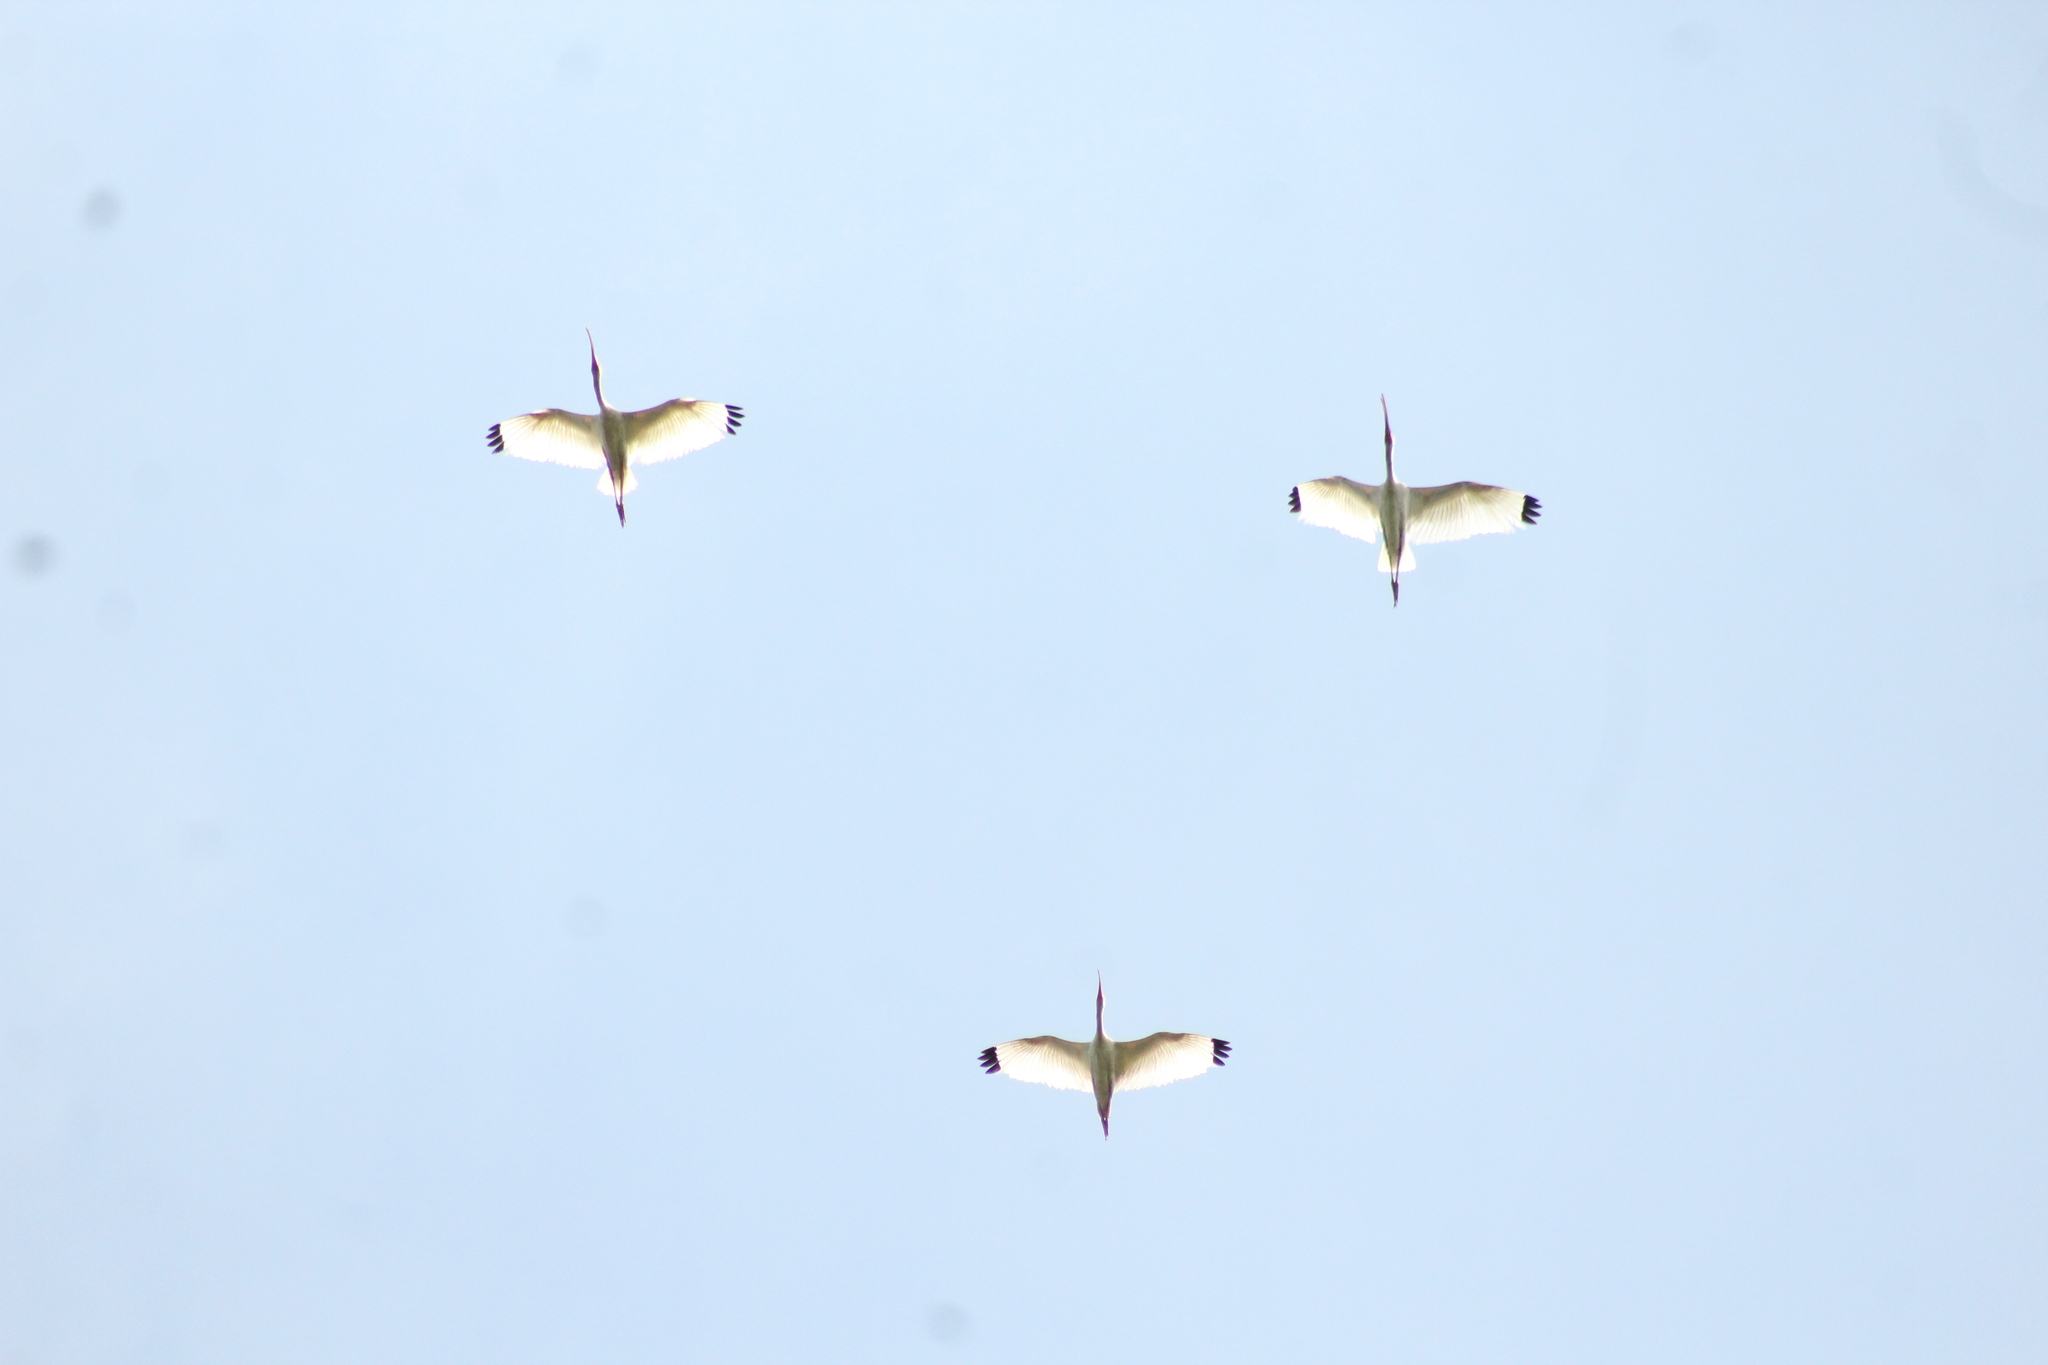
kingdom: Animalia
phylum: Chordata
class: Aves
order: Pelecaniformes
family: Threskiornithidae
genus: Eudocimus
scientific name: Eudocimus albus
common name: White ibis
